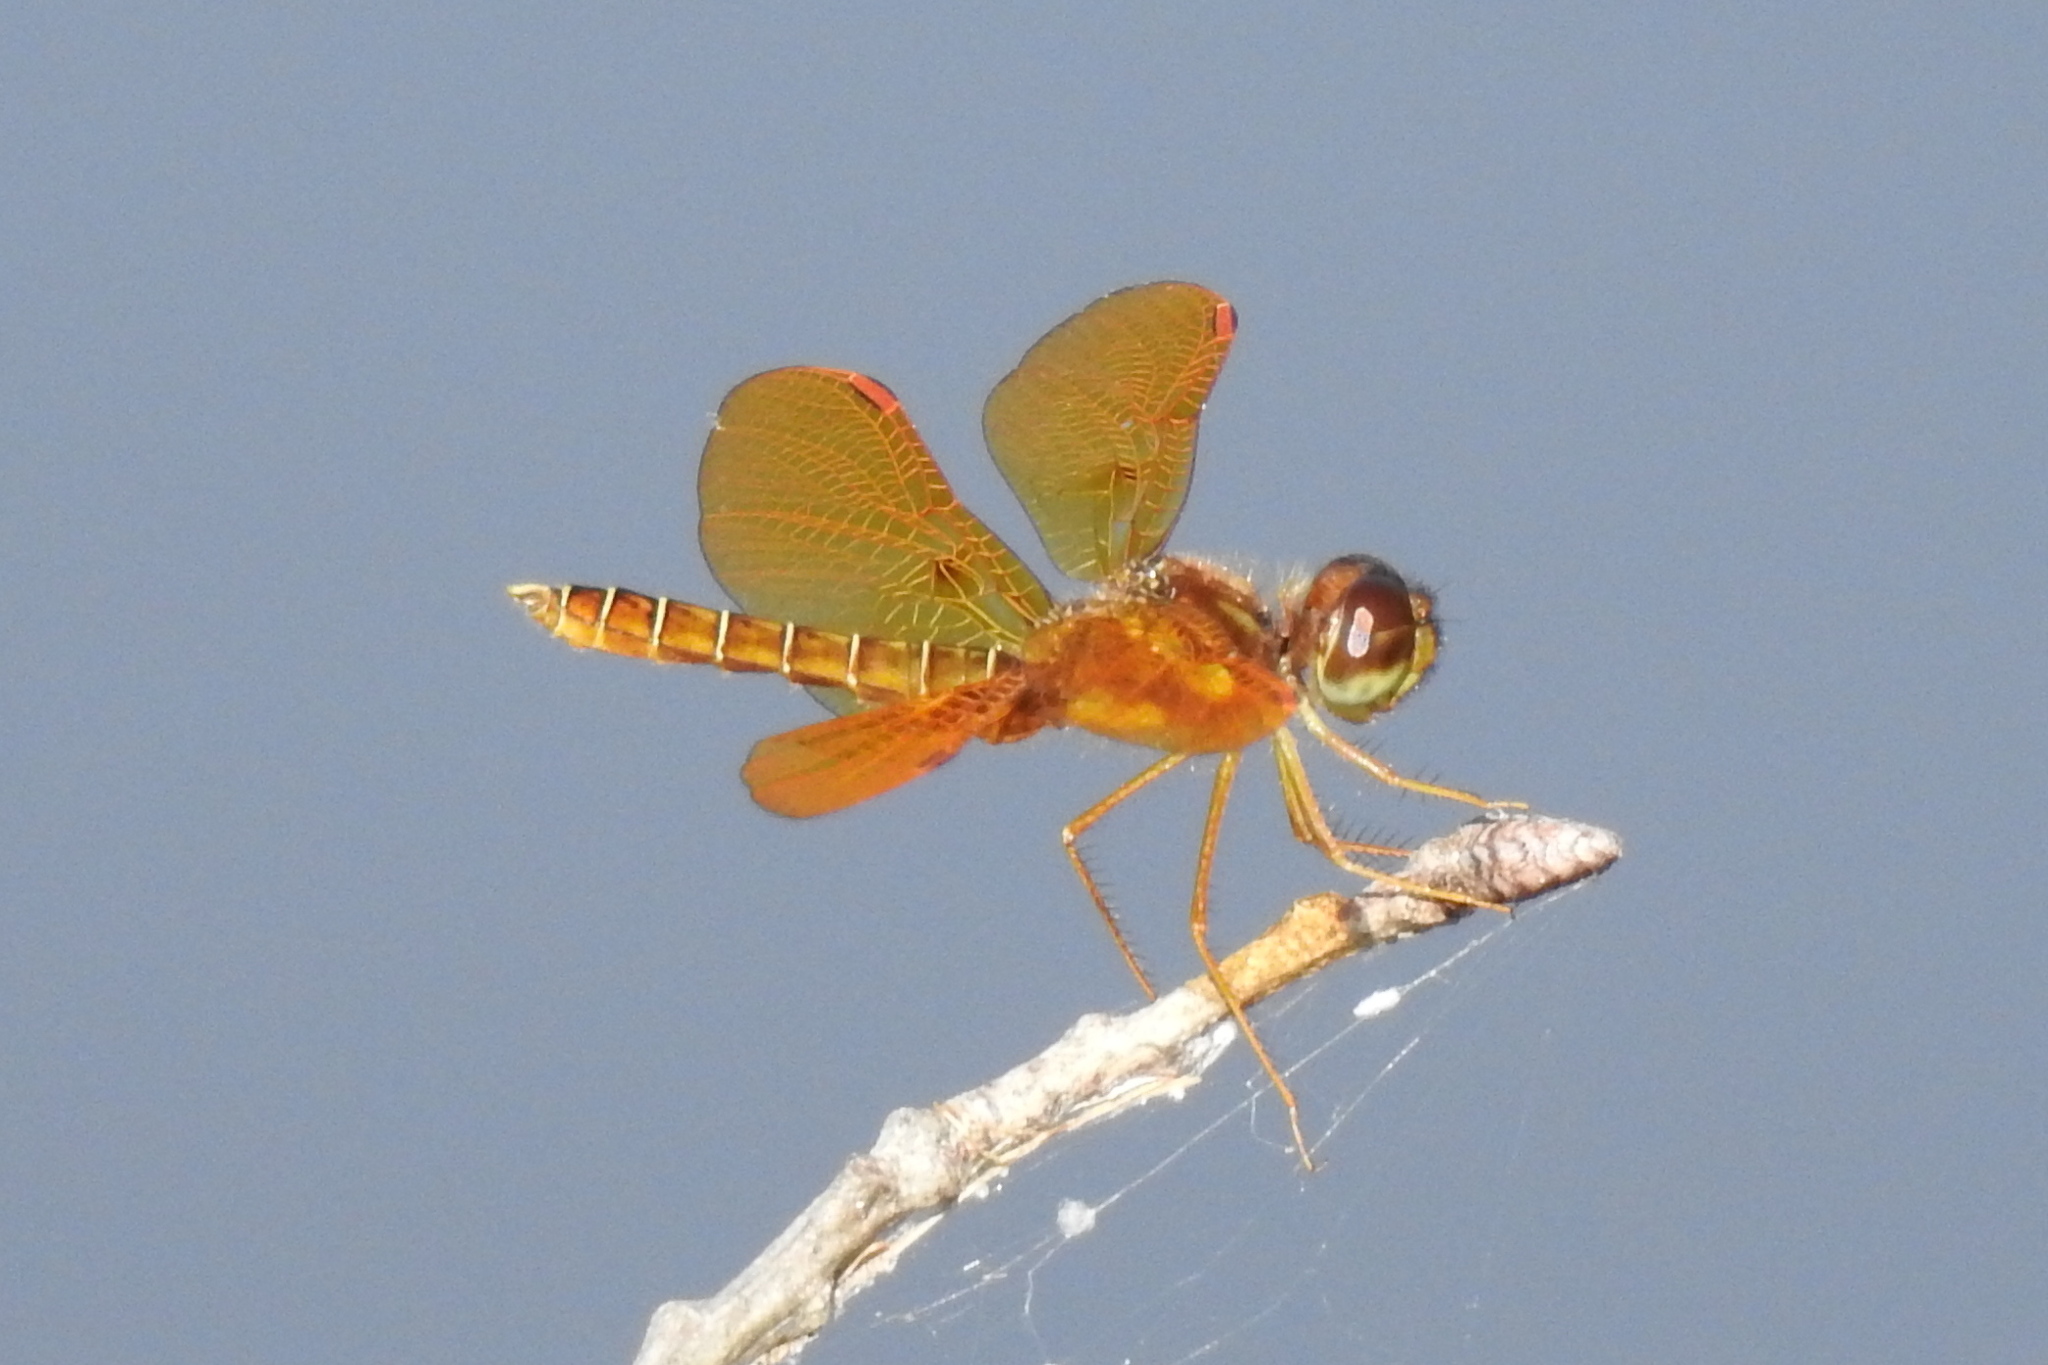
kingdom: Animalia
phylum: Arthropoda
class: Insecta
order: Odonata
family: Libellulidae
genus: Perithemis
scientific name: Perithemis tenera
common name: Eastern amberwing
